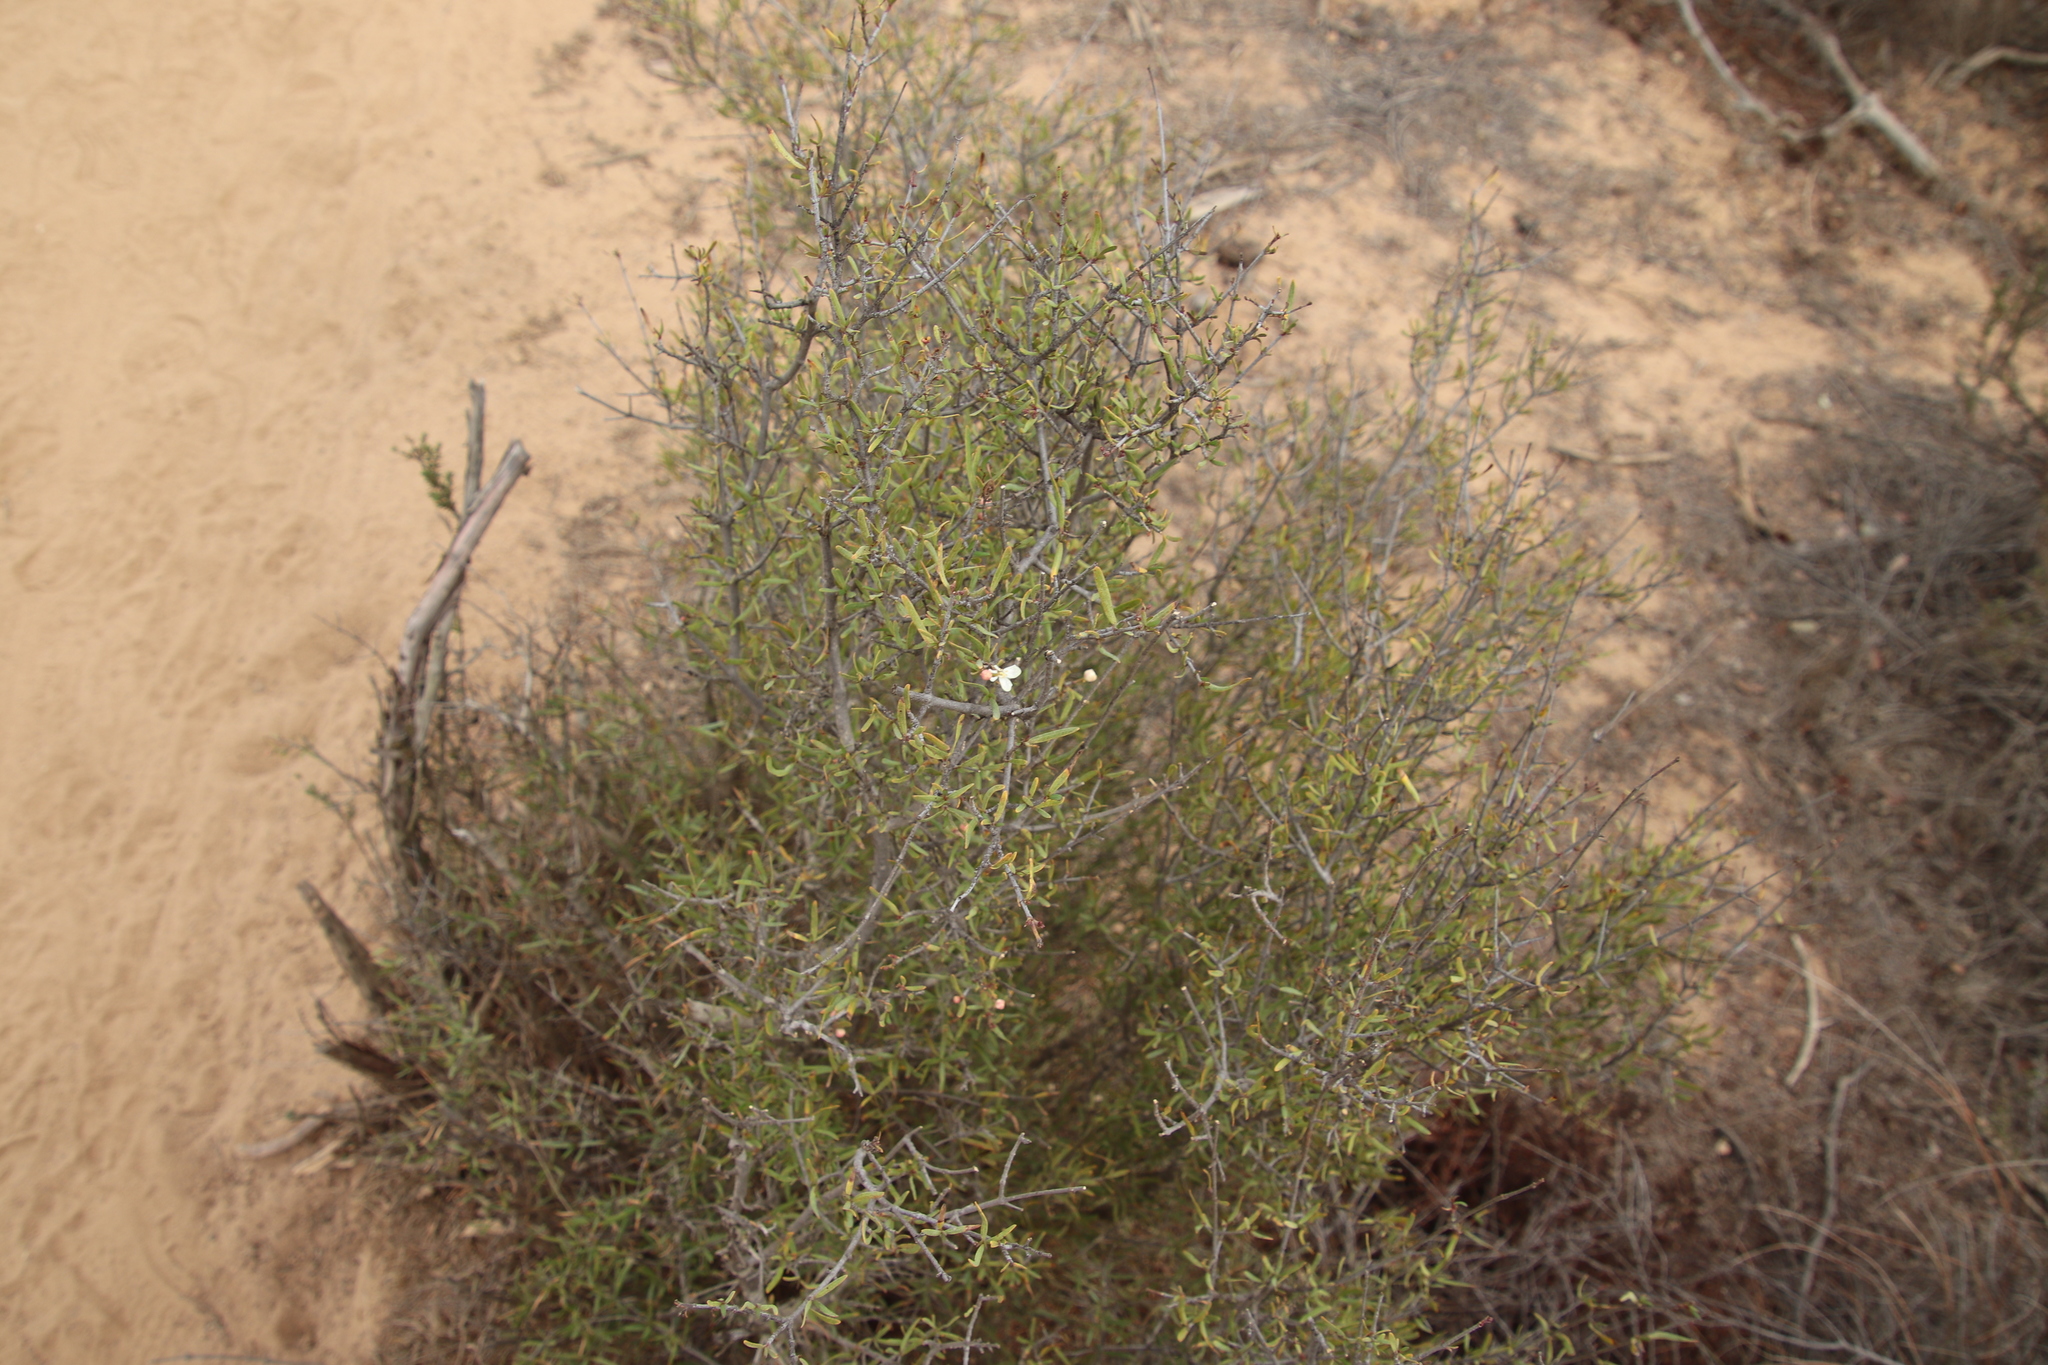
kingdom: Plantae
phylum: Tracheophyta
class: Magnoliopsida
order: Sapindales
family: Rutaceae
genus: Cneoridium
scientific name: Cneoridium dumosum
